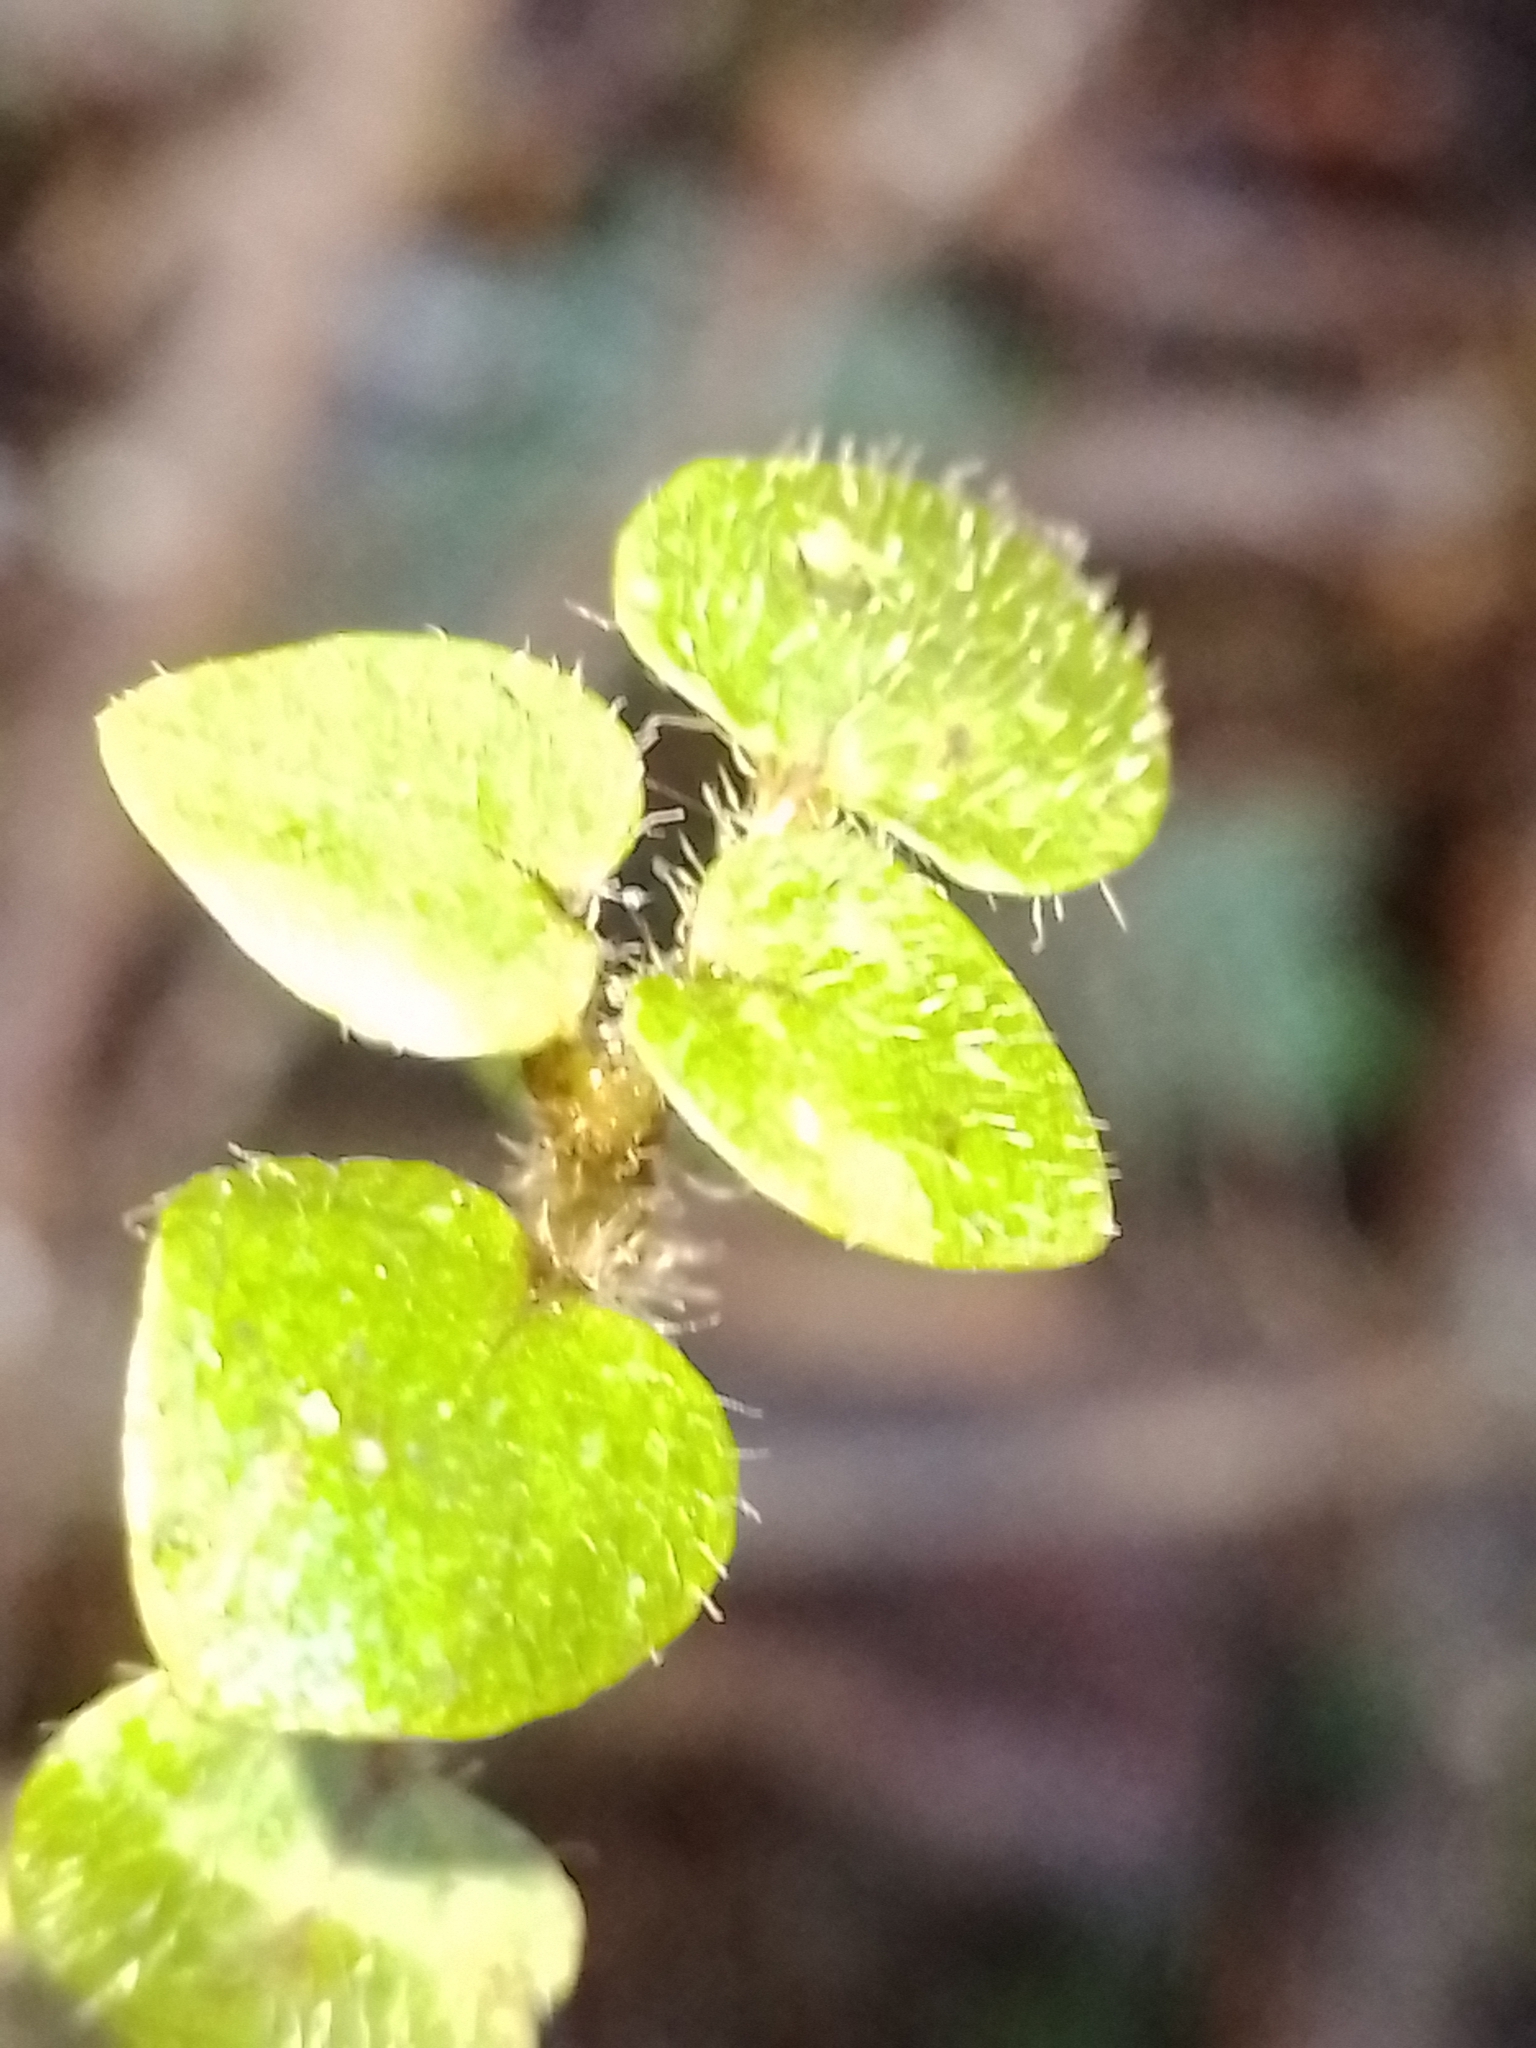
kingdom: Plantae
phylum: Tracheophyta
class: Magnoliopsida
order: Gentianales
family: Rubiaceae
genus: Nertera
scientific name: Nertera villosa
